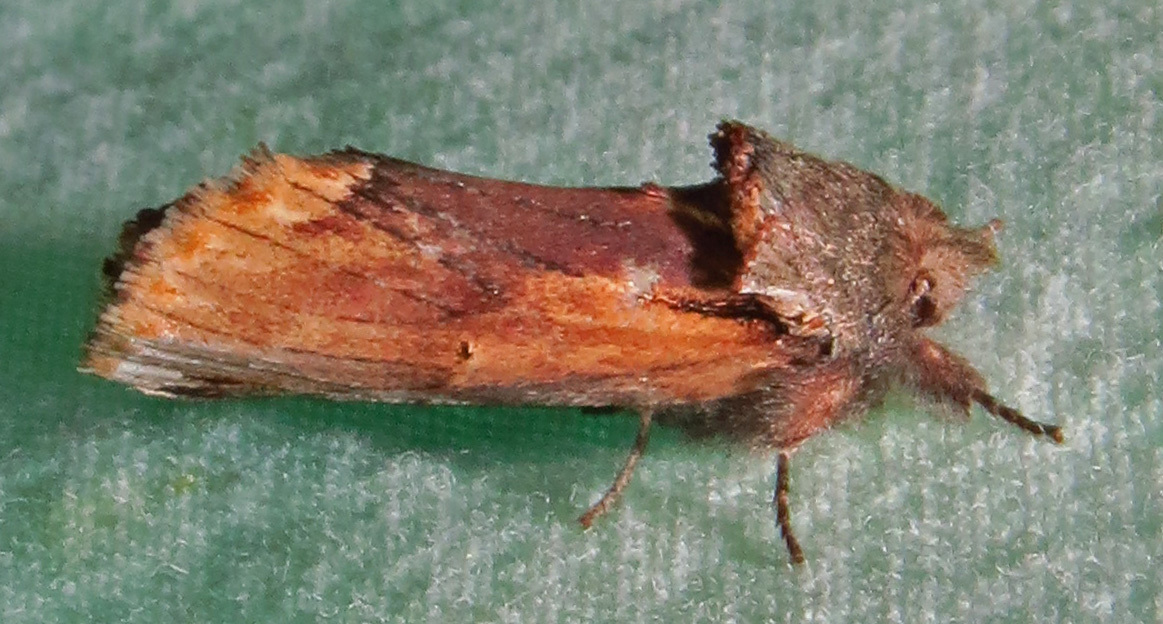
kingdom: Animalia
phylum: Arthropoda
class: Insecta
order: Lepidoptera
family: Notodontidae
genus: Schizura
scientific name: Schizura
